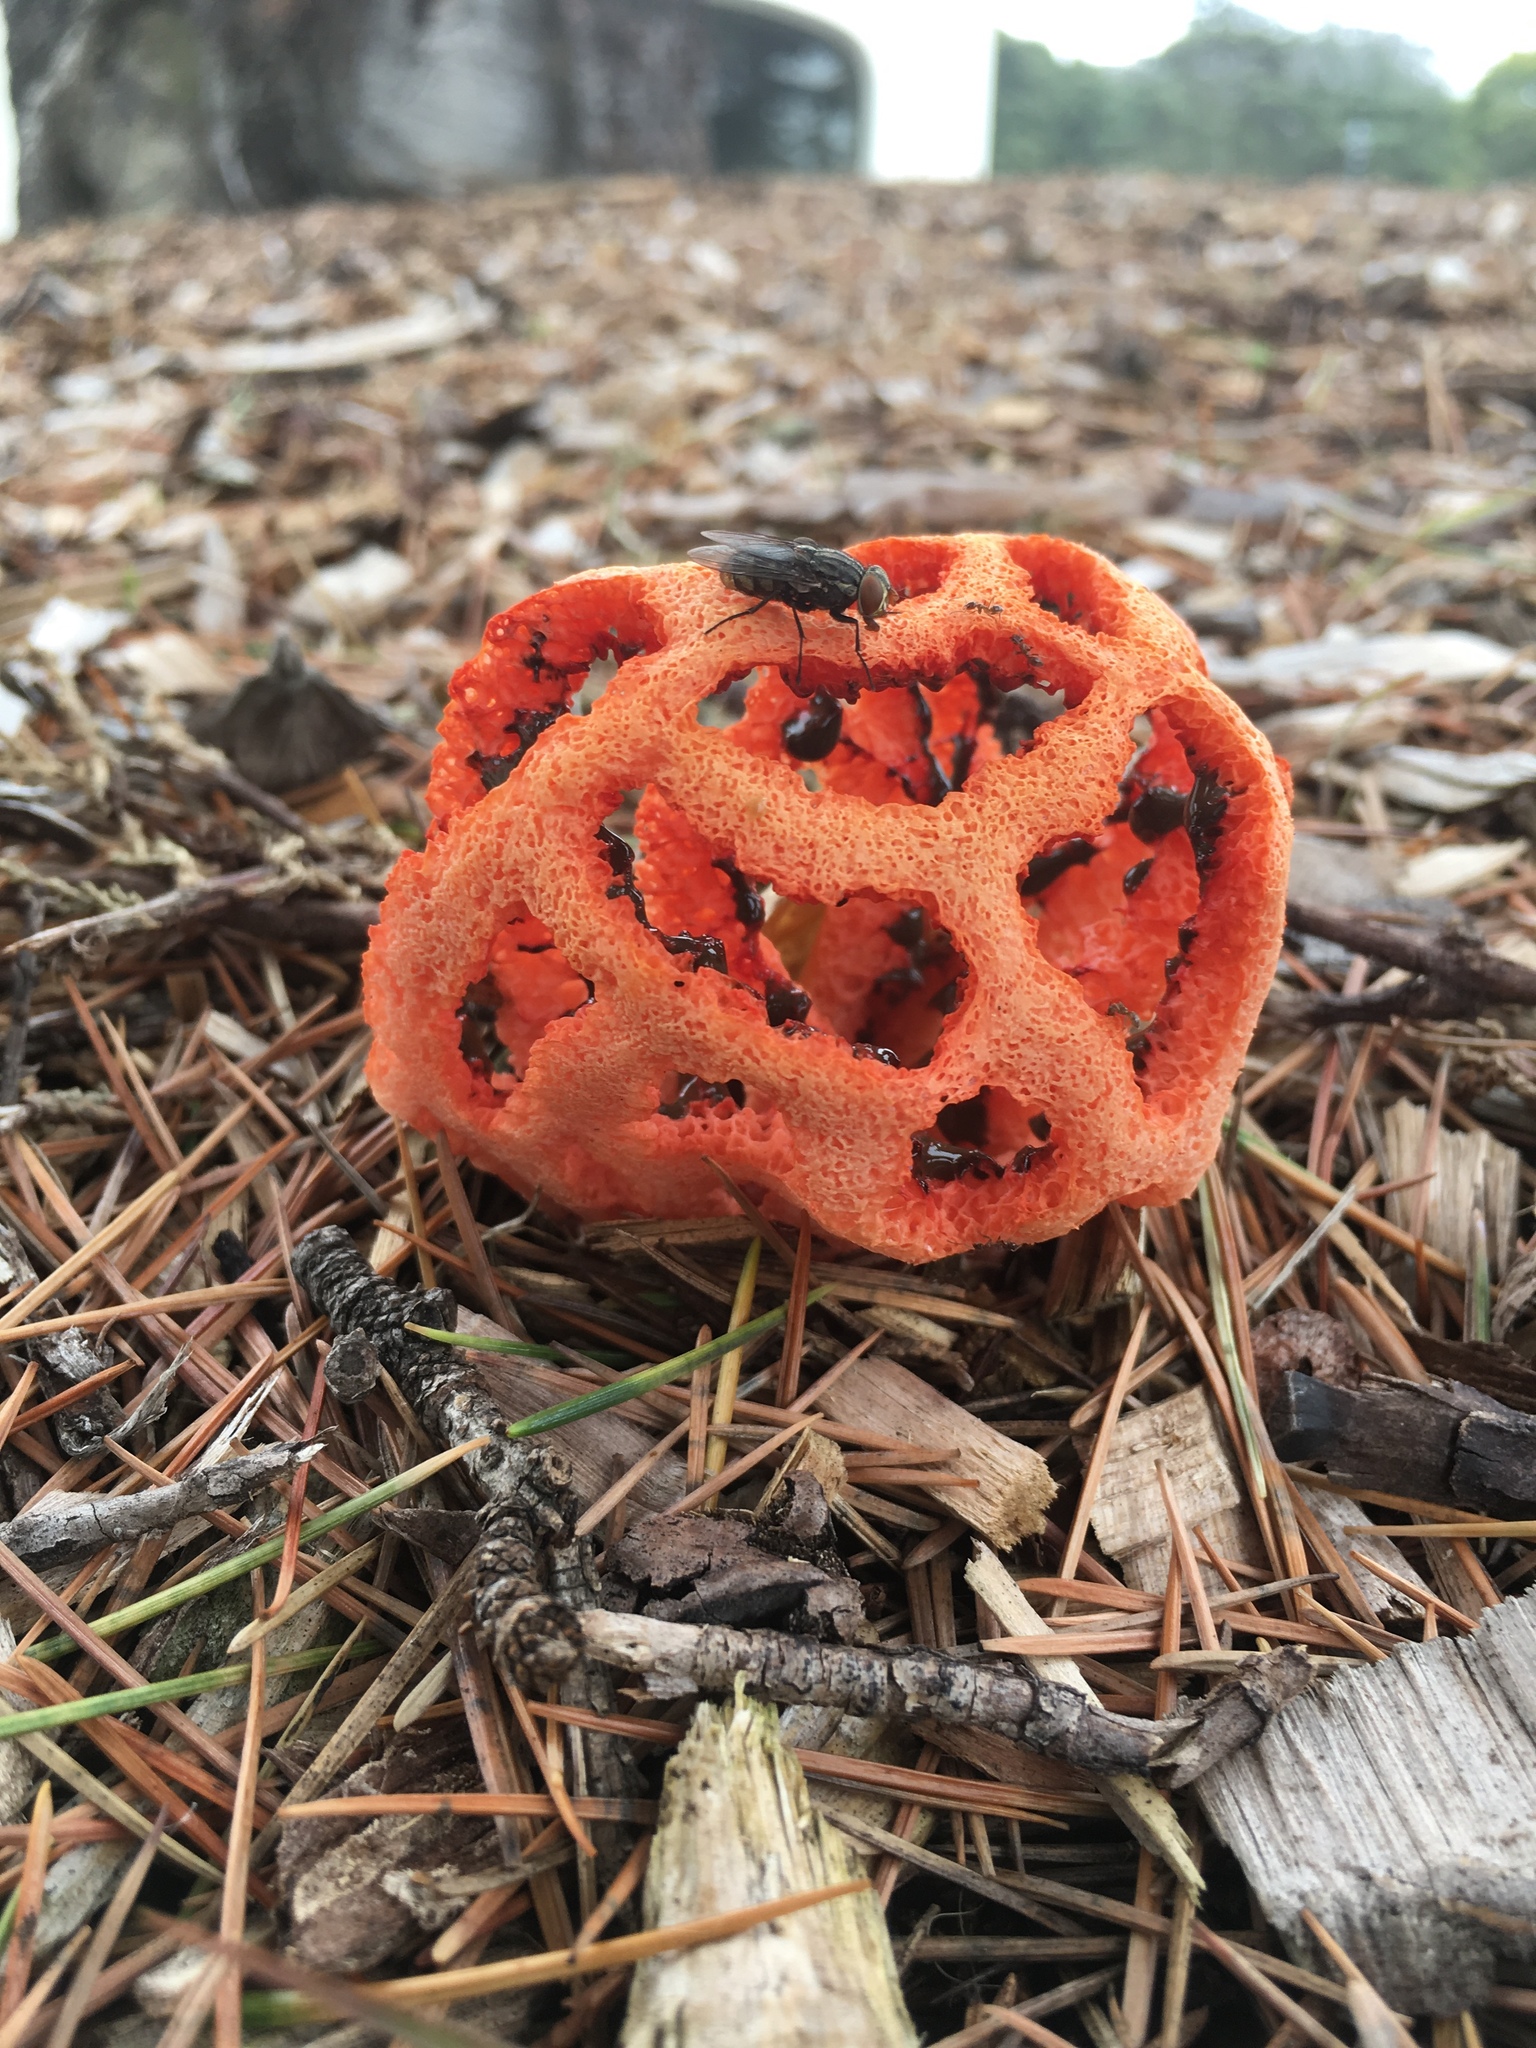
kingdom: Fungi
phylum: Basidiomycota
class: Agaricomycetes
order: Phallales
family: Phallaceae
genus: Clathrus
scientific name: Clathrus ruber
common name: Red cage
